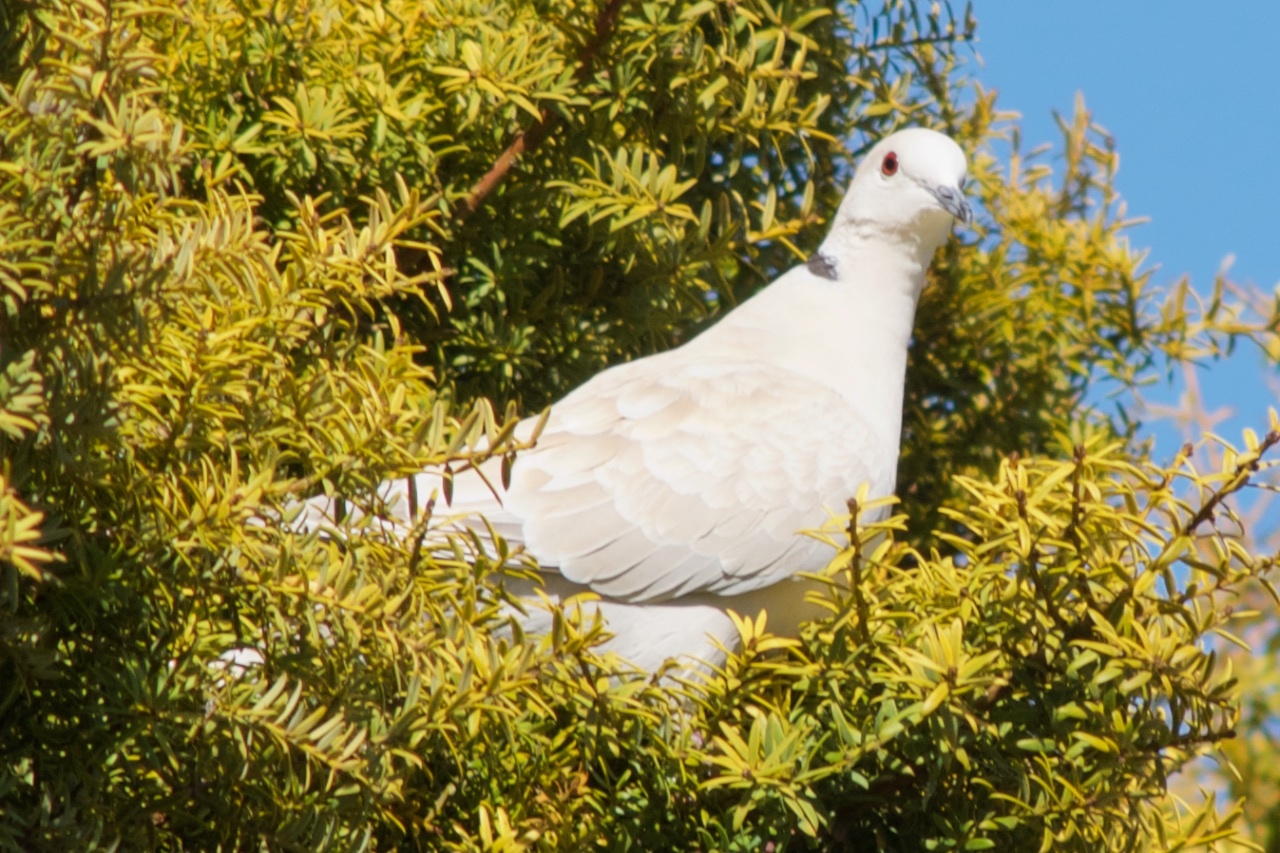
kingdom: Animalia
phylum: Chordata
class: Aves
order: Columbiformes
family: Columbidae
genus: Streptopelia
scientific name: Streptopelia roseogrisea
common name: African collared dove
